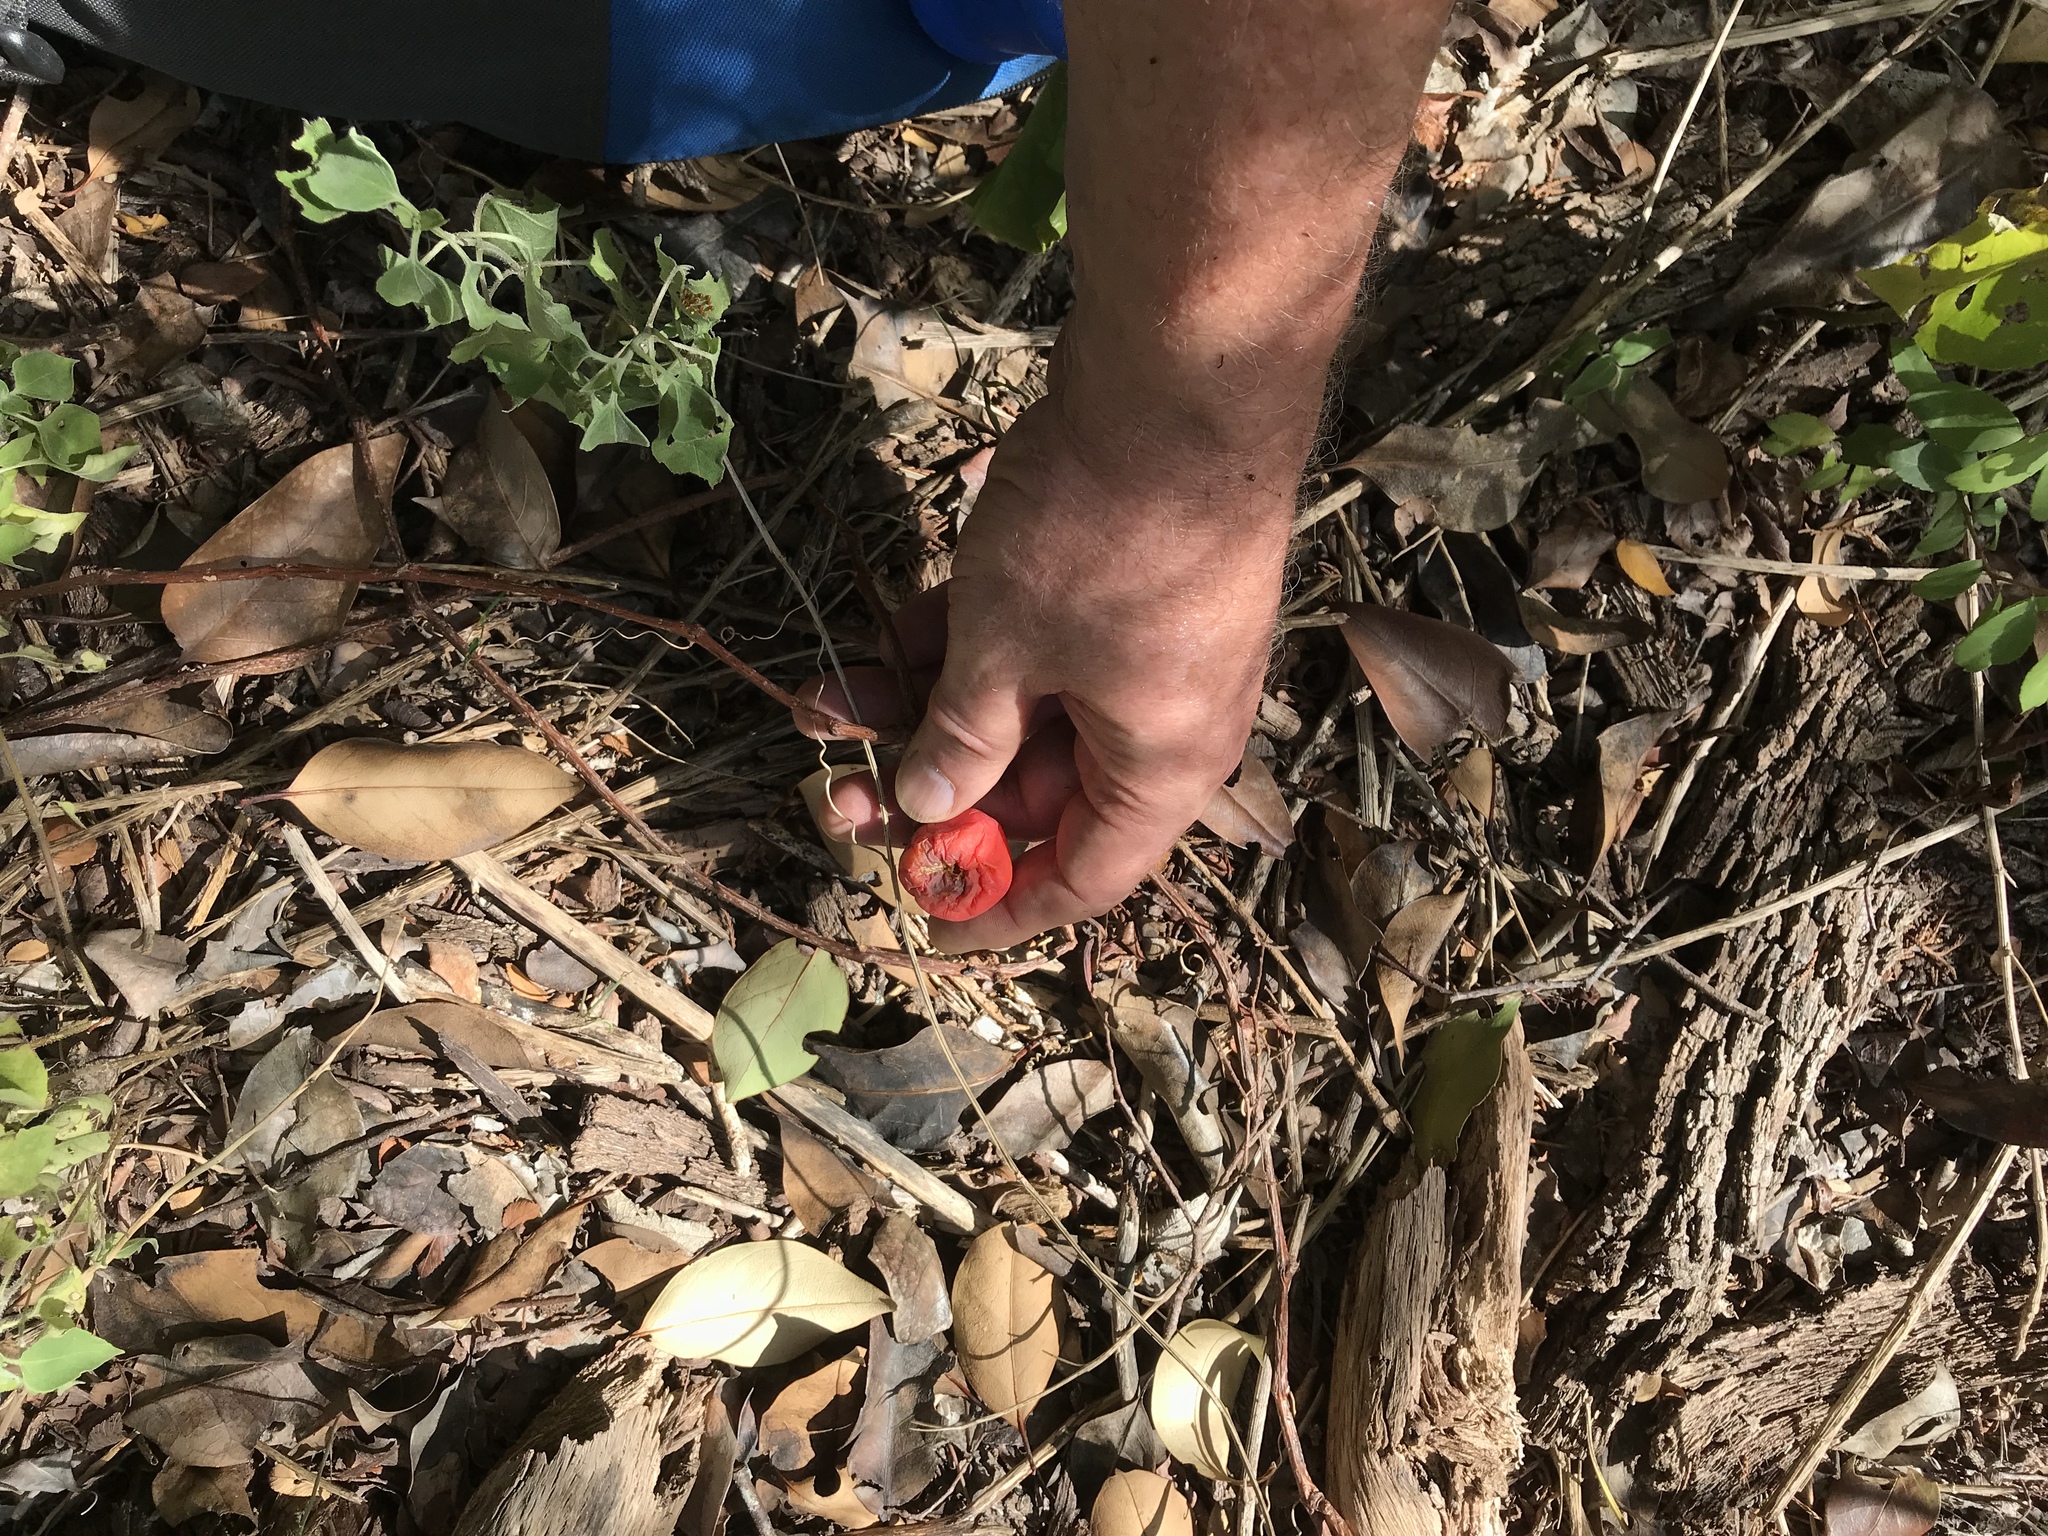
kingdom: Plantae
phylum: Tracheophyta
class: Magnoliopsida
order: Cucurbitales
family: Cucurbitaceae
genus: Ibervillea
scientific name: Ibervillea lindheimeri
